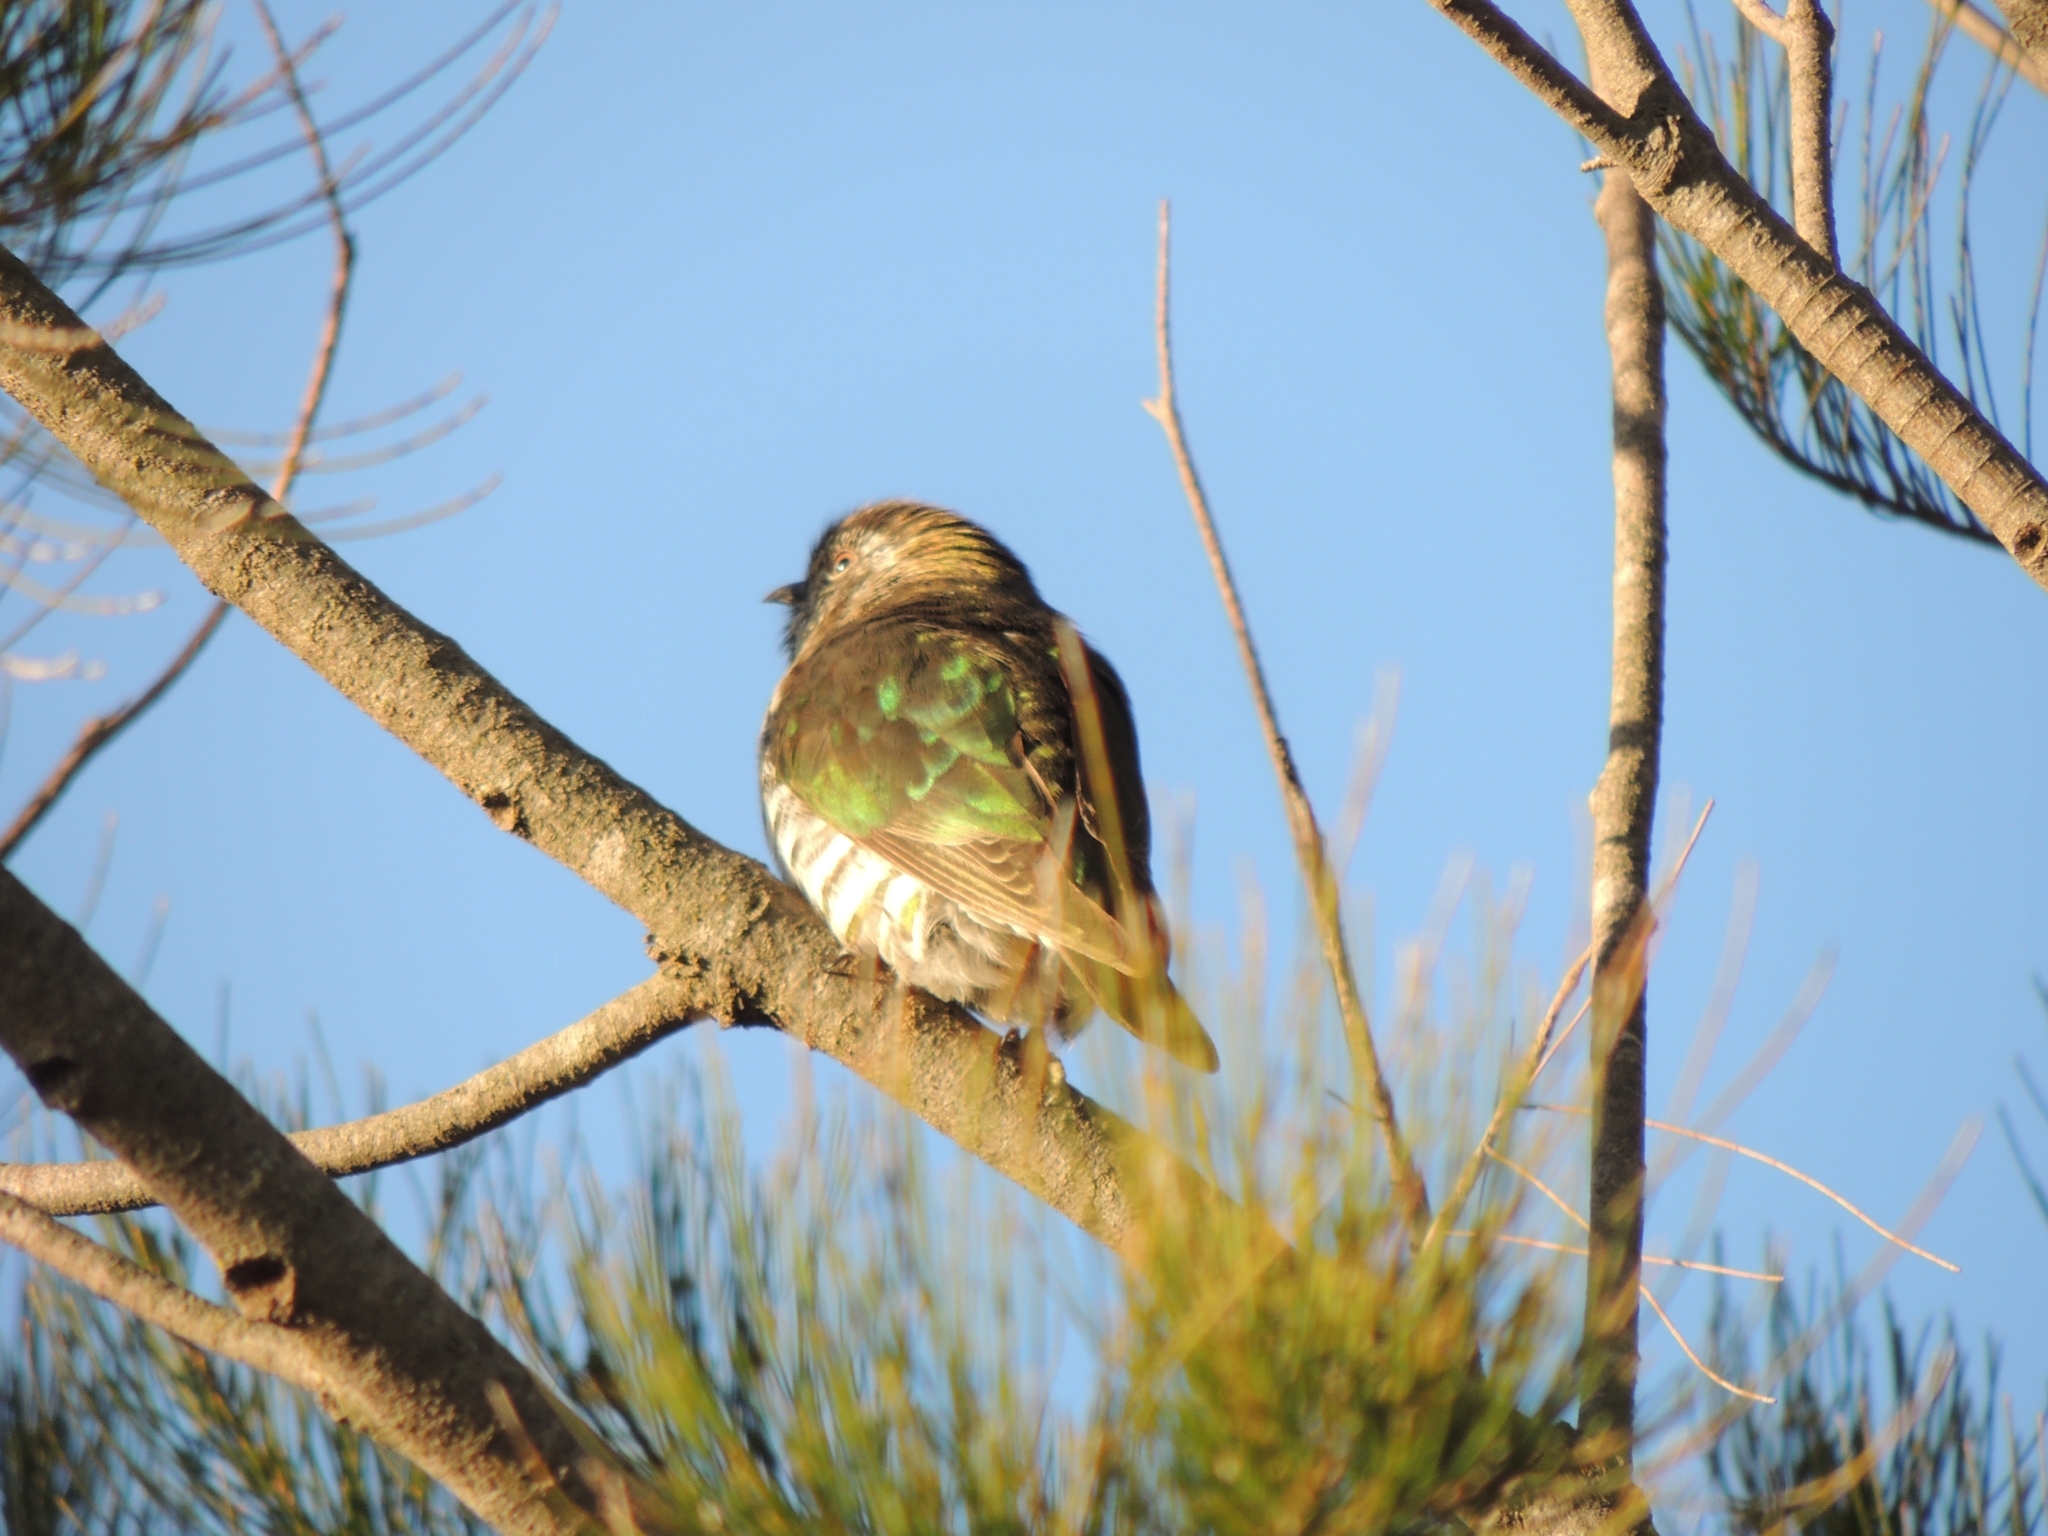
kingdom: Animalia
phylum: Chordata
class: Aves
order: Cuculiformes
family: Cuculidae
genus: Chrysococcyx
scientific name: Chrysococcyx lucidus
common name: Shining bronze cuckoo
